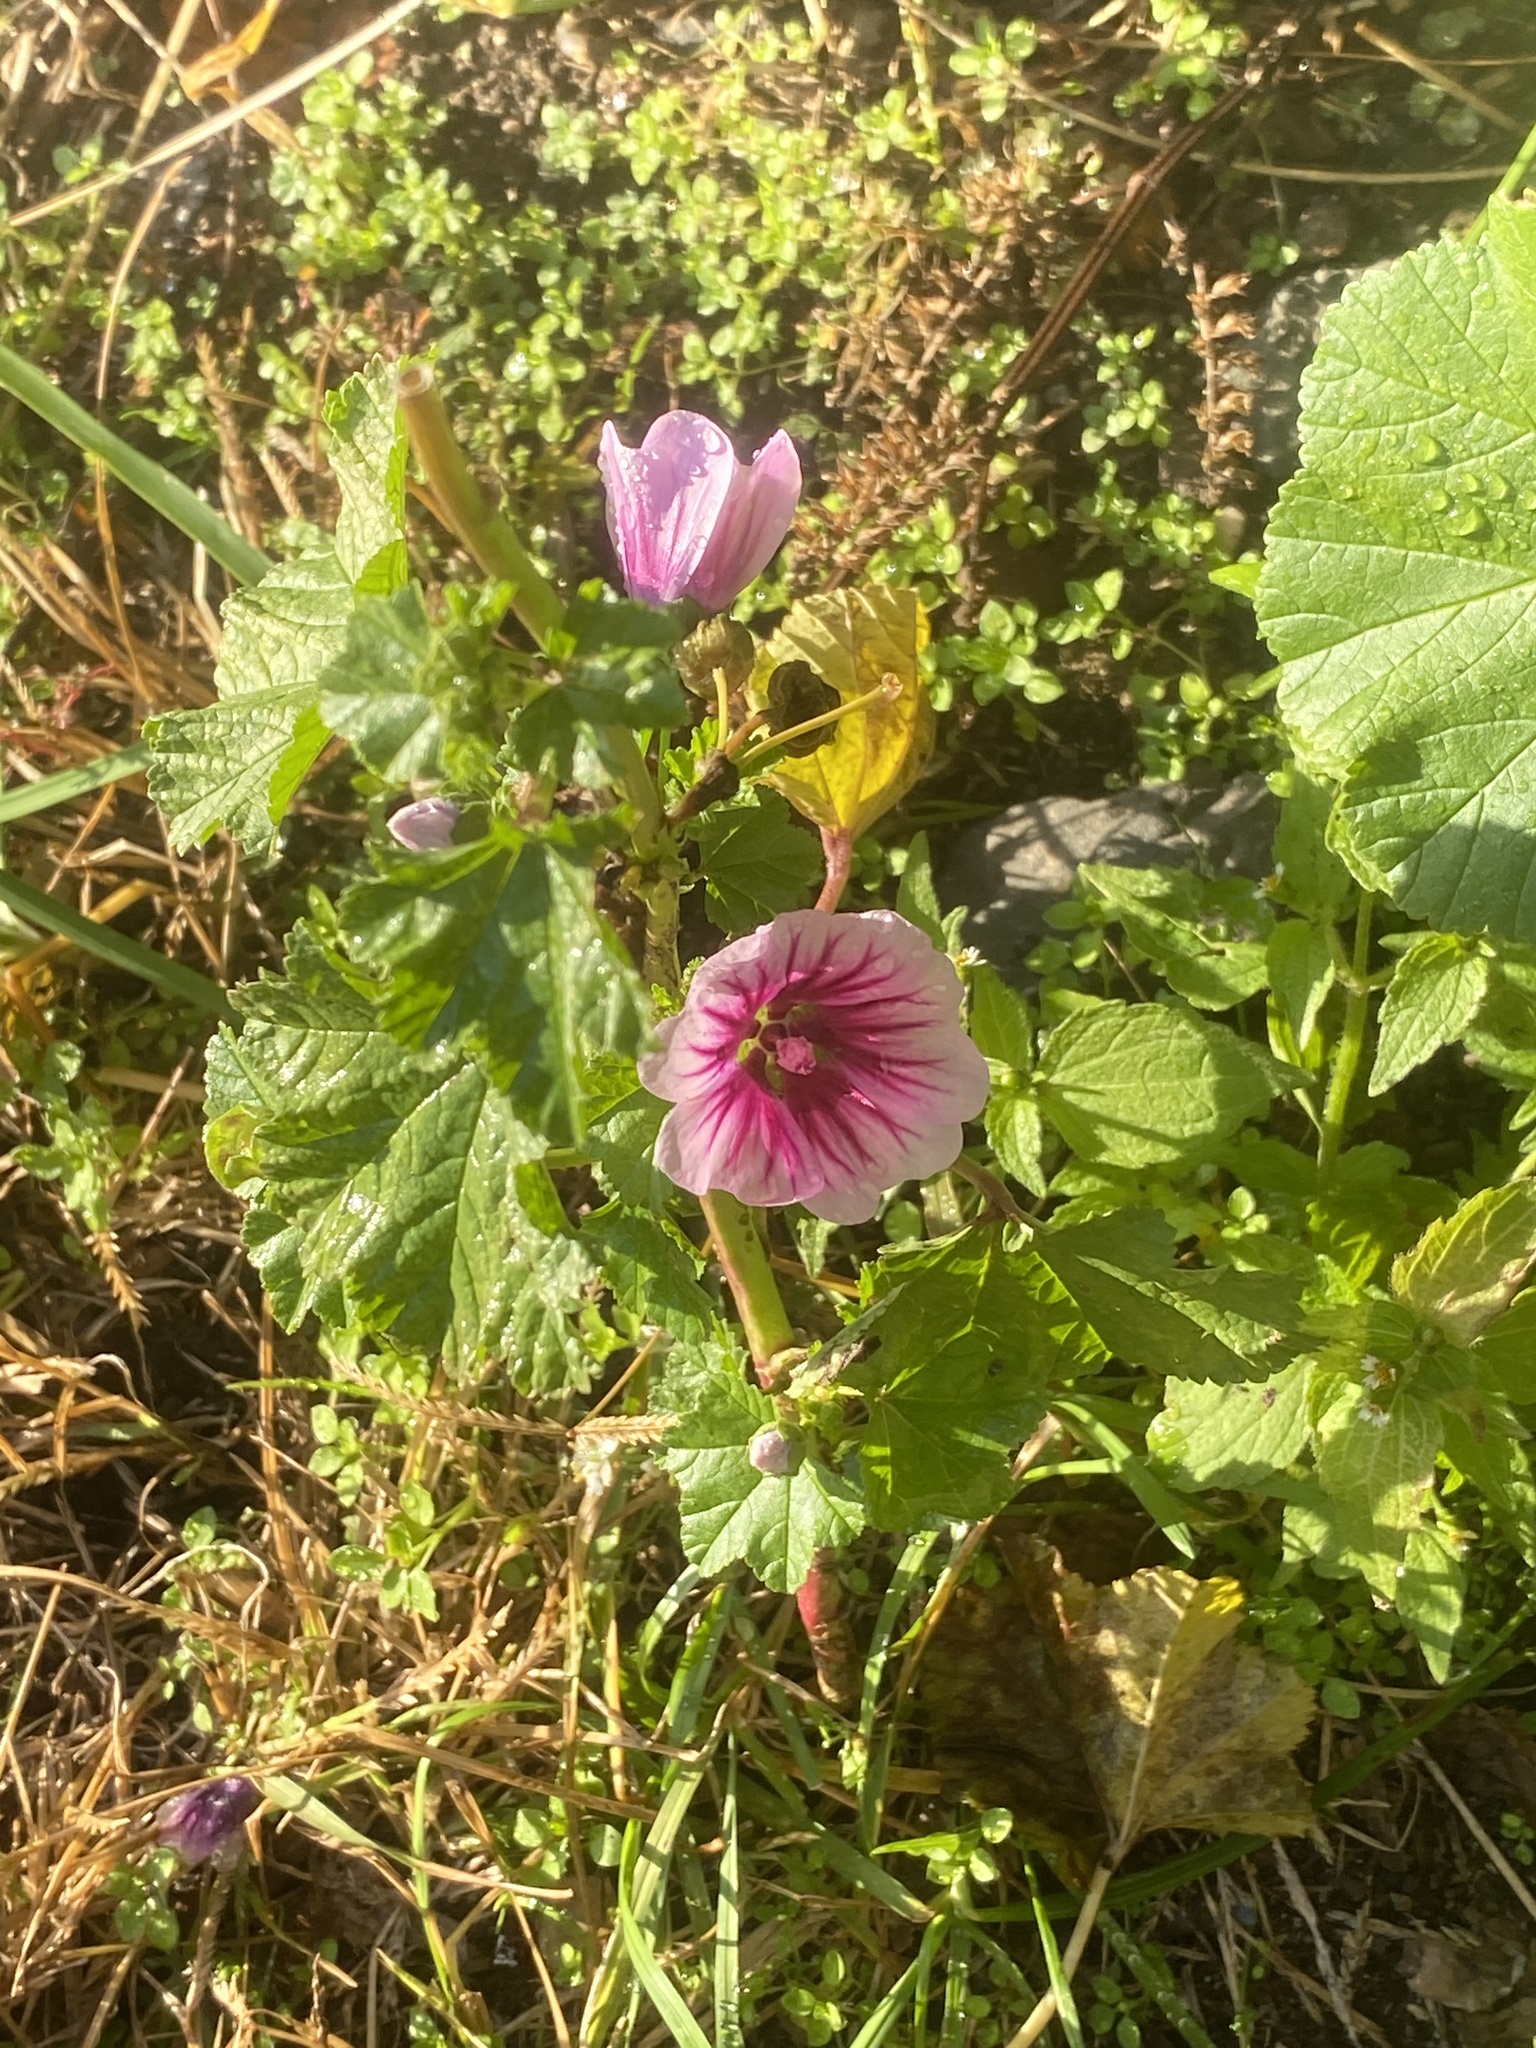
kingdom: Plantae
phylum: Tracheophyta
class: Magnoliopsida
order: Malvales
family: Malvaceae
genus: Malva
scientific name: Malva sylvestris
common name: Common mallow
